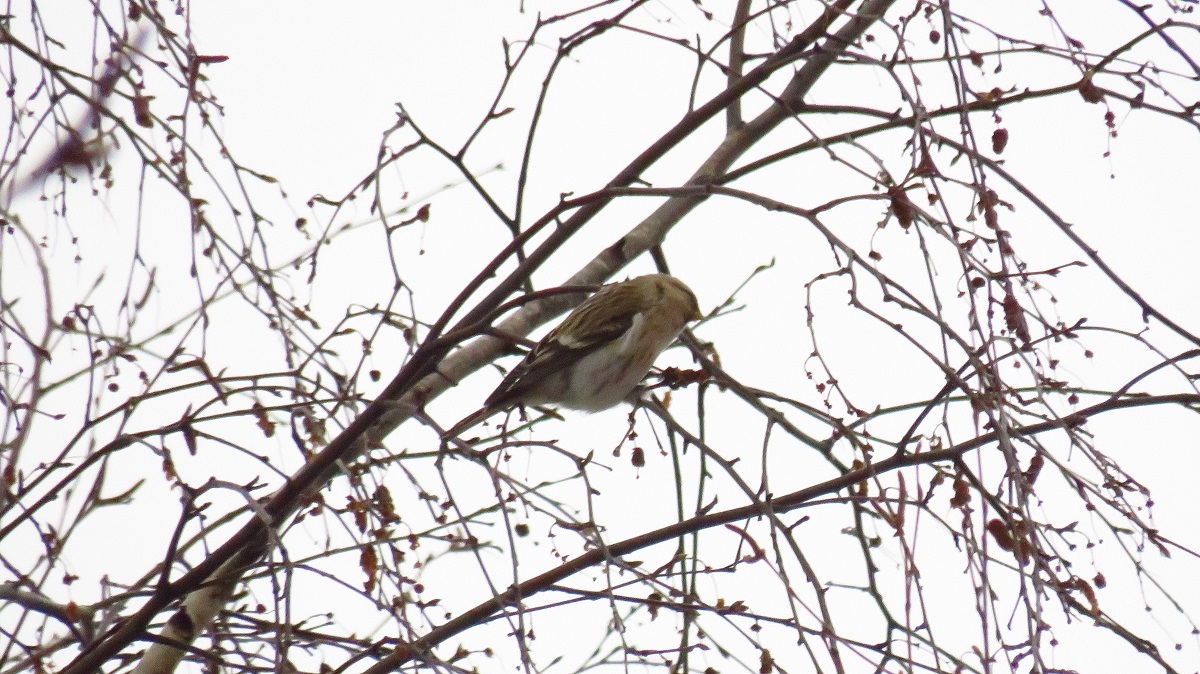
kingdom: Animalia
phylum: Chordata
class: Aves
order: Passeriformes
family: Fringillidae
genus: Acanthis
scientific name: Acanthis flammea
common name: Common redpoll
